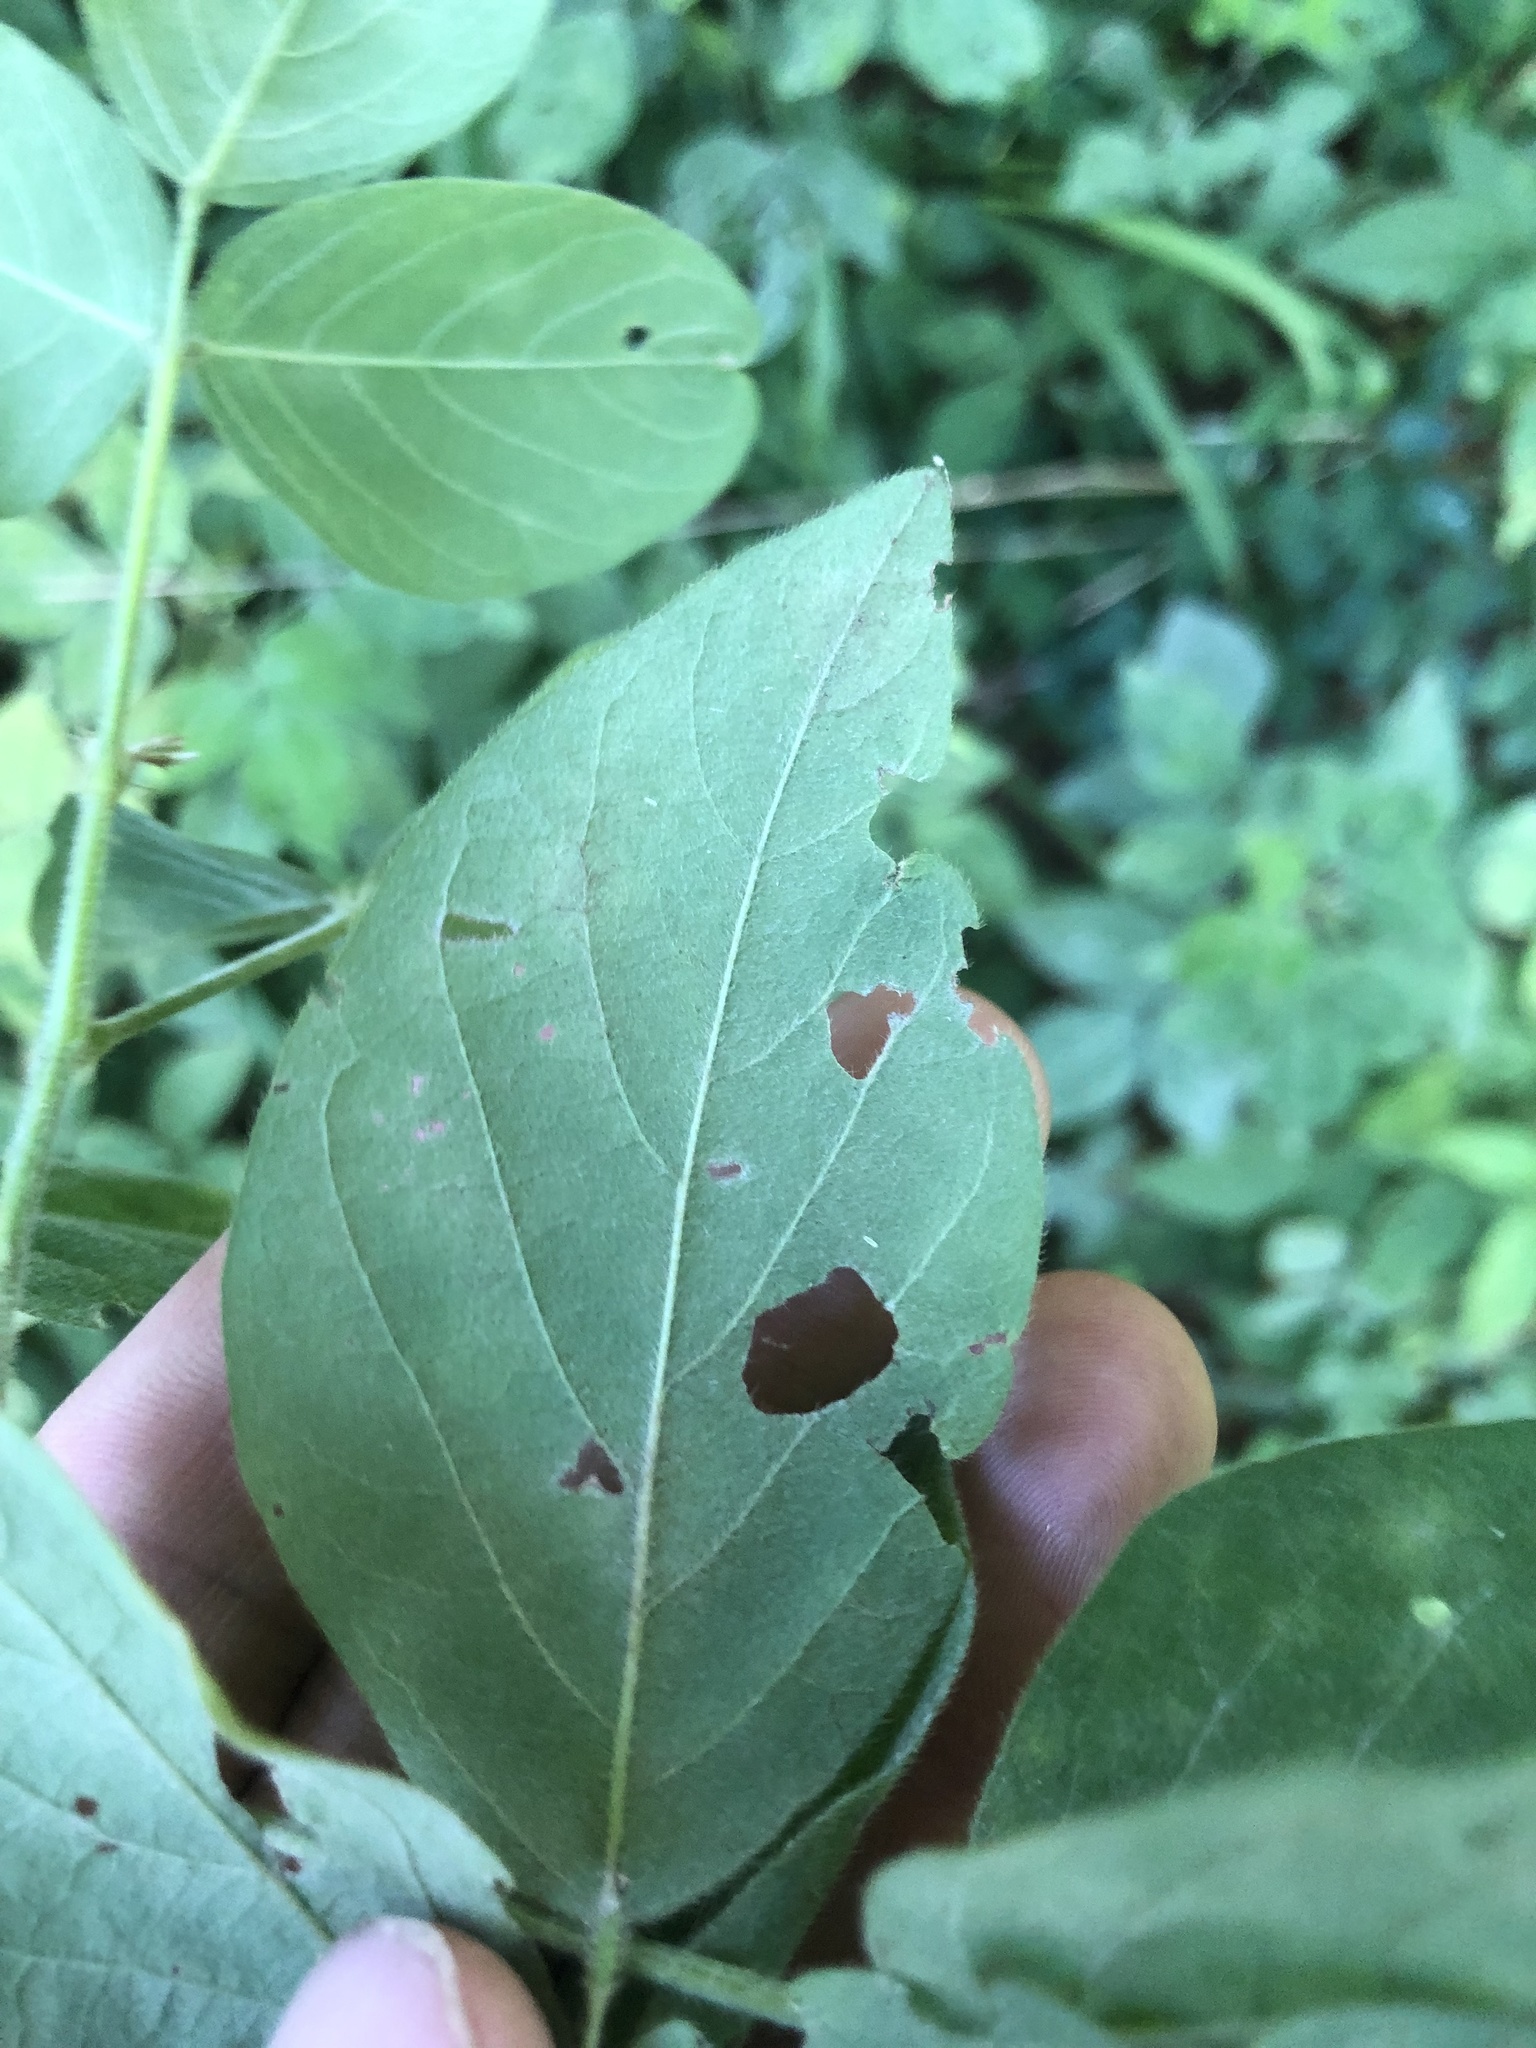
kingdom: Plantae
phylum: Tracheophyta
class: Magnoliopsida
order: Fabales
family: Fabaceae
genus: Desmodium
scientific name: Desmodium nuttallii
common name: Nuttall's tick trefoil
